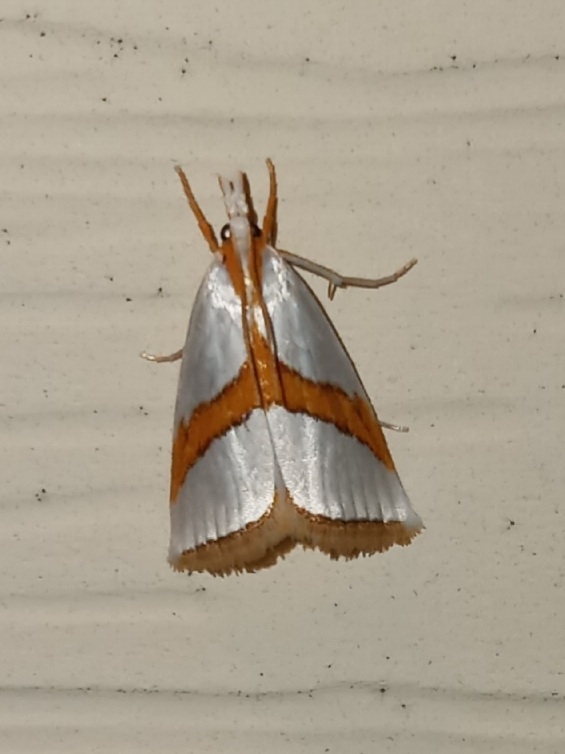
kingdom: Animalia
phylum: Arthropoda
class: Insecta
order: Lepidoptera
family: Crambidae
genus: Vaxi
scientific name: Vaxi critica
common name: Straight-lined vaxi moth
